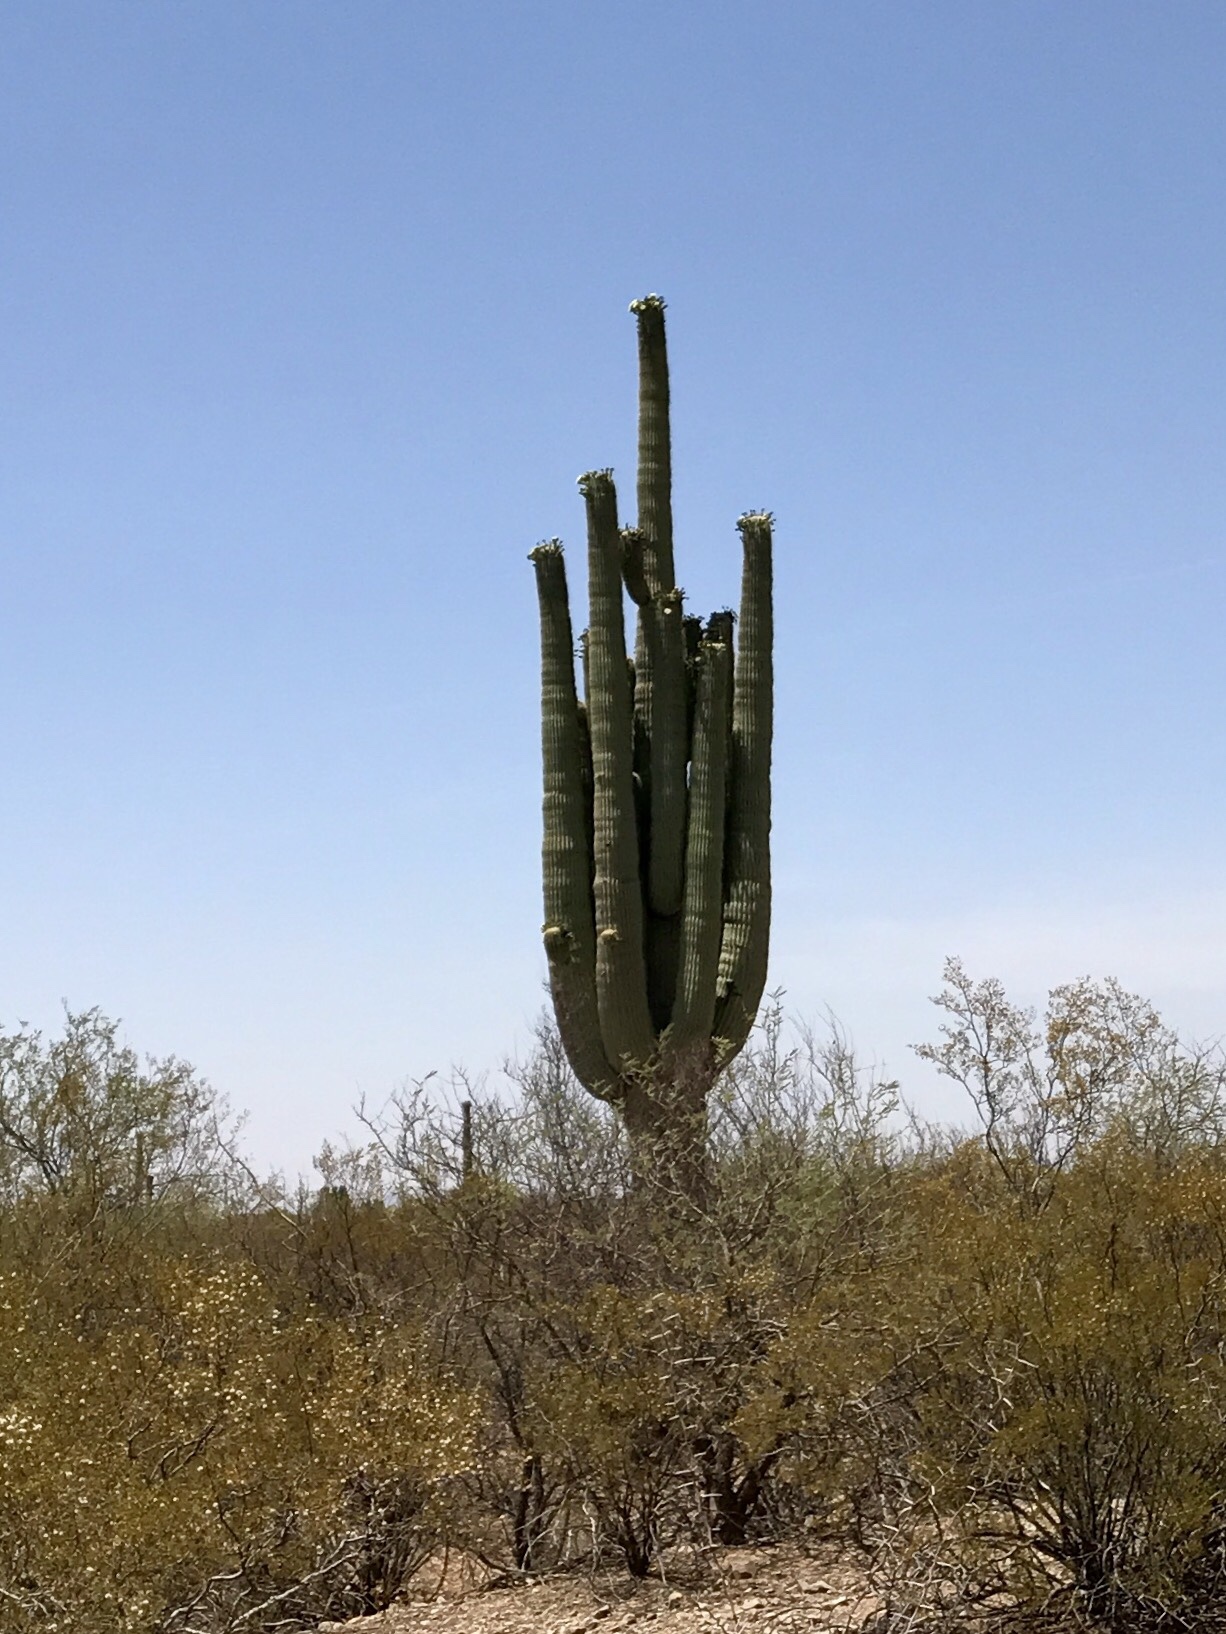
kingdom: Plantae
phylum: Tracheophyta
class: Magnoliopsida
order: Caryophyllales
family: Cactaceae
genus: Carnegiea
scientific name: Carnegiea gigantea
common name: Saguaro
